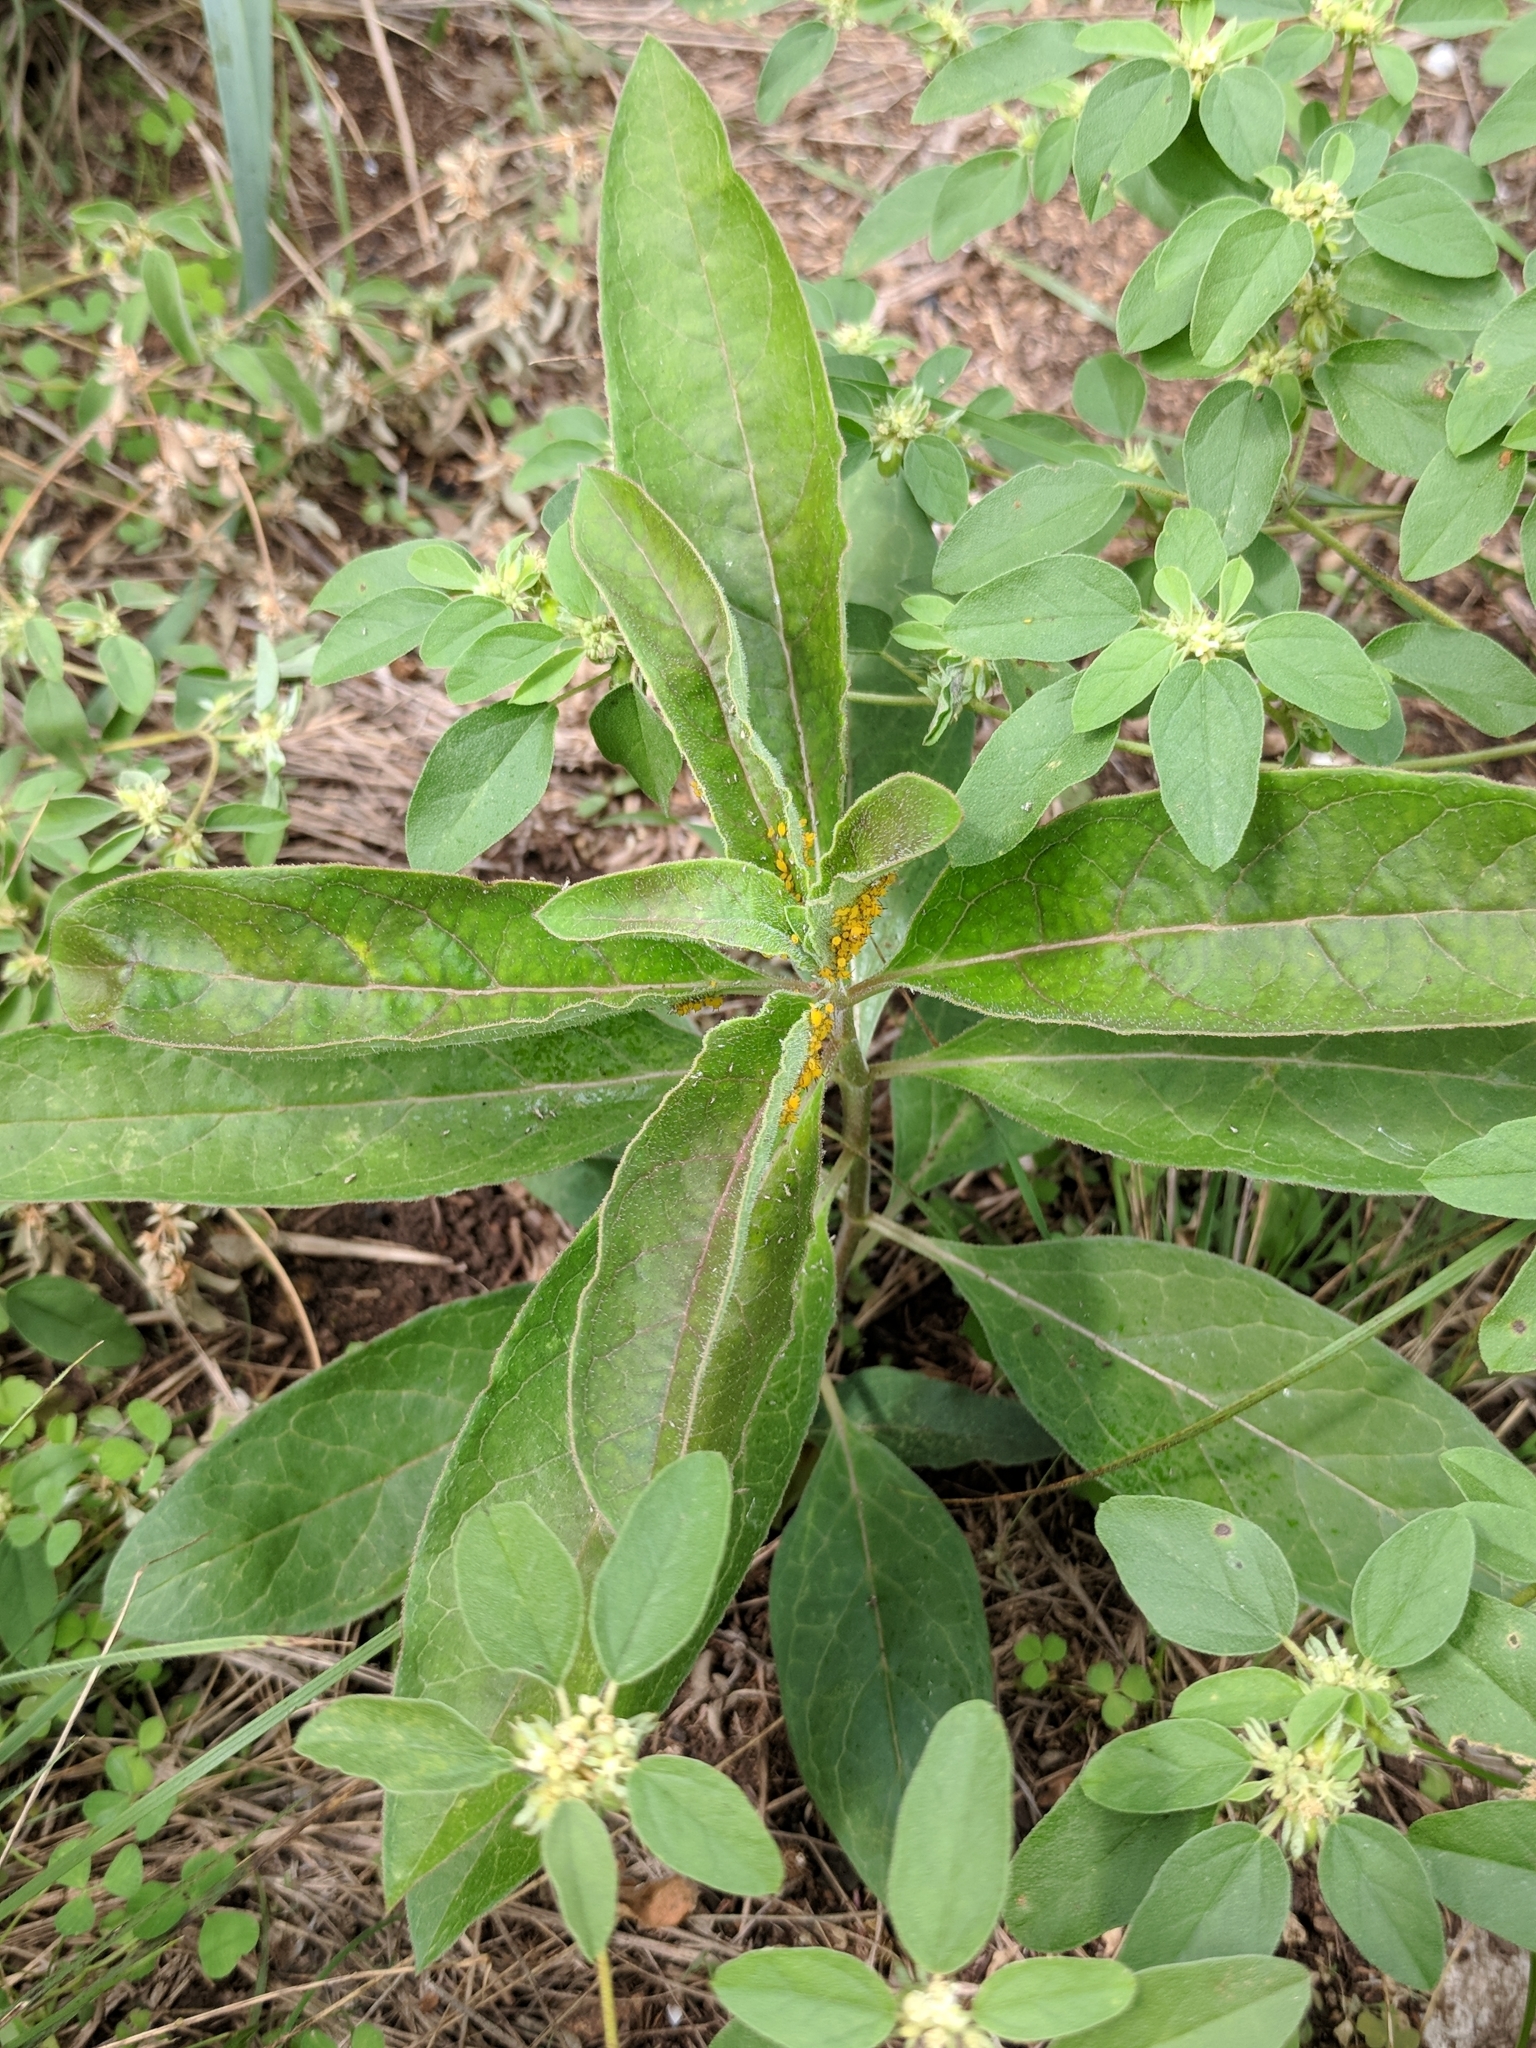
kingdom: Plantae
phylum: Tracheophyta
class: Magnoliopsida
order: Gentianales
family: Apocynaceae
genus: Asclepias
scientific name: Asclepias oenotheroides
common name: Zizotes milkweed
